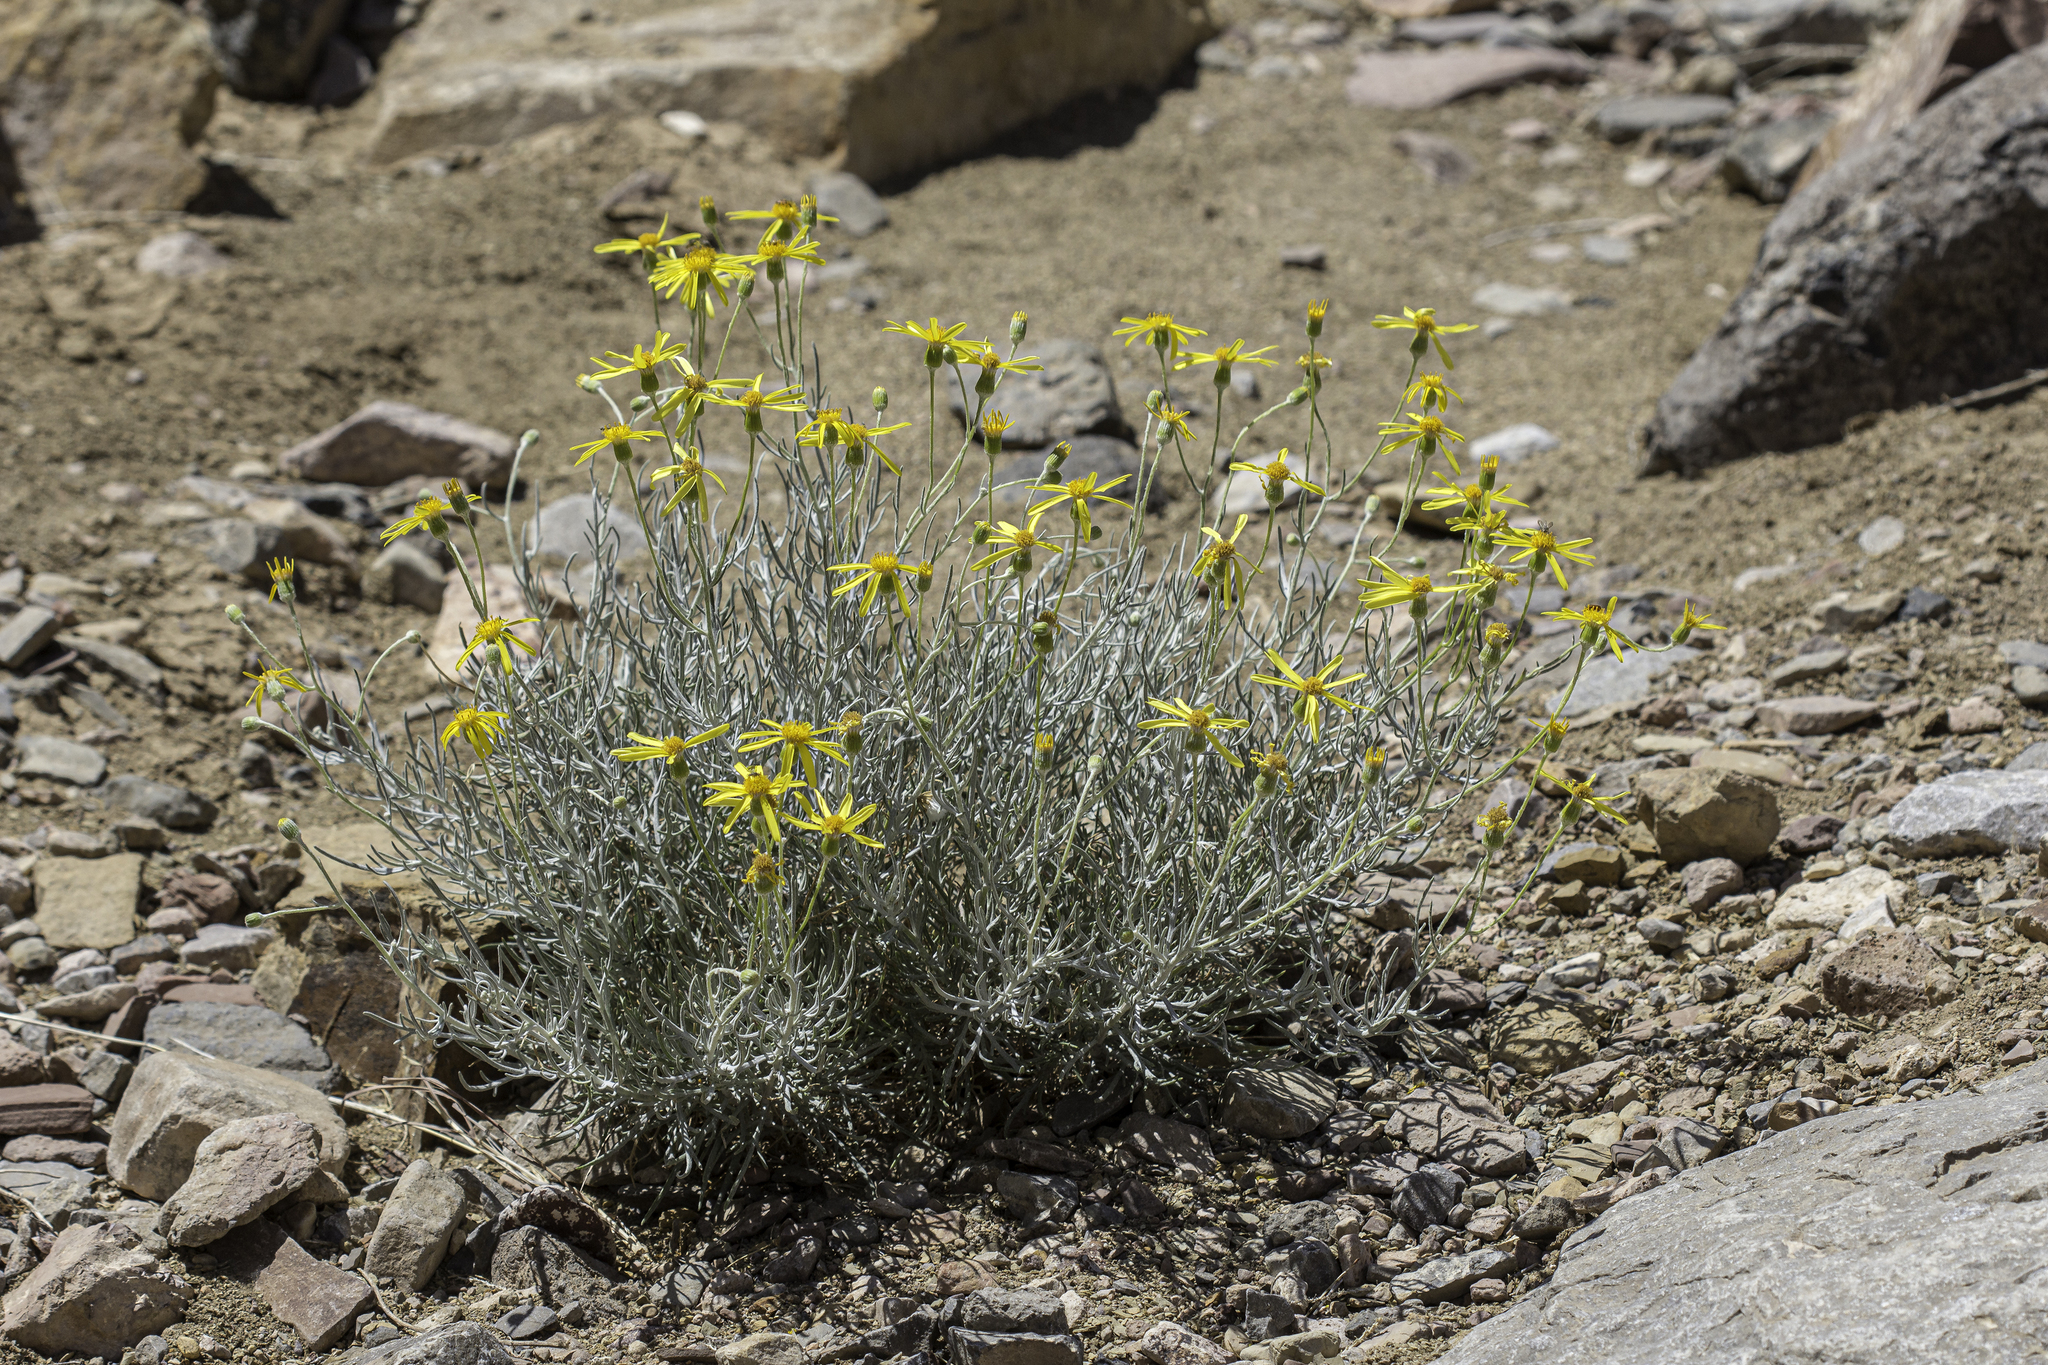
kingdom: Plantae
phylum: Tracheophyta
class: Magnoliopsida
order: Asterales
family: Asteraceae
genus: Senecio
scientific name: Senecio flaccidus
